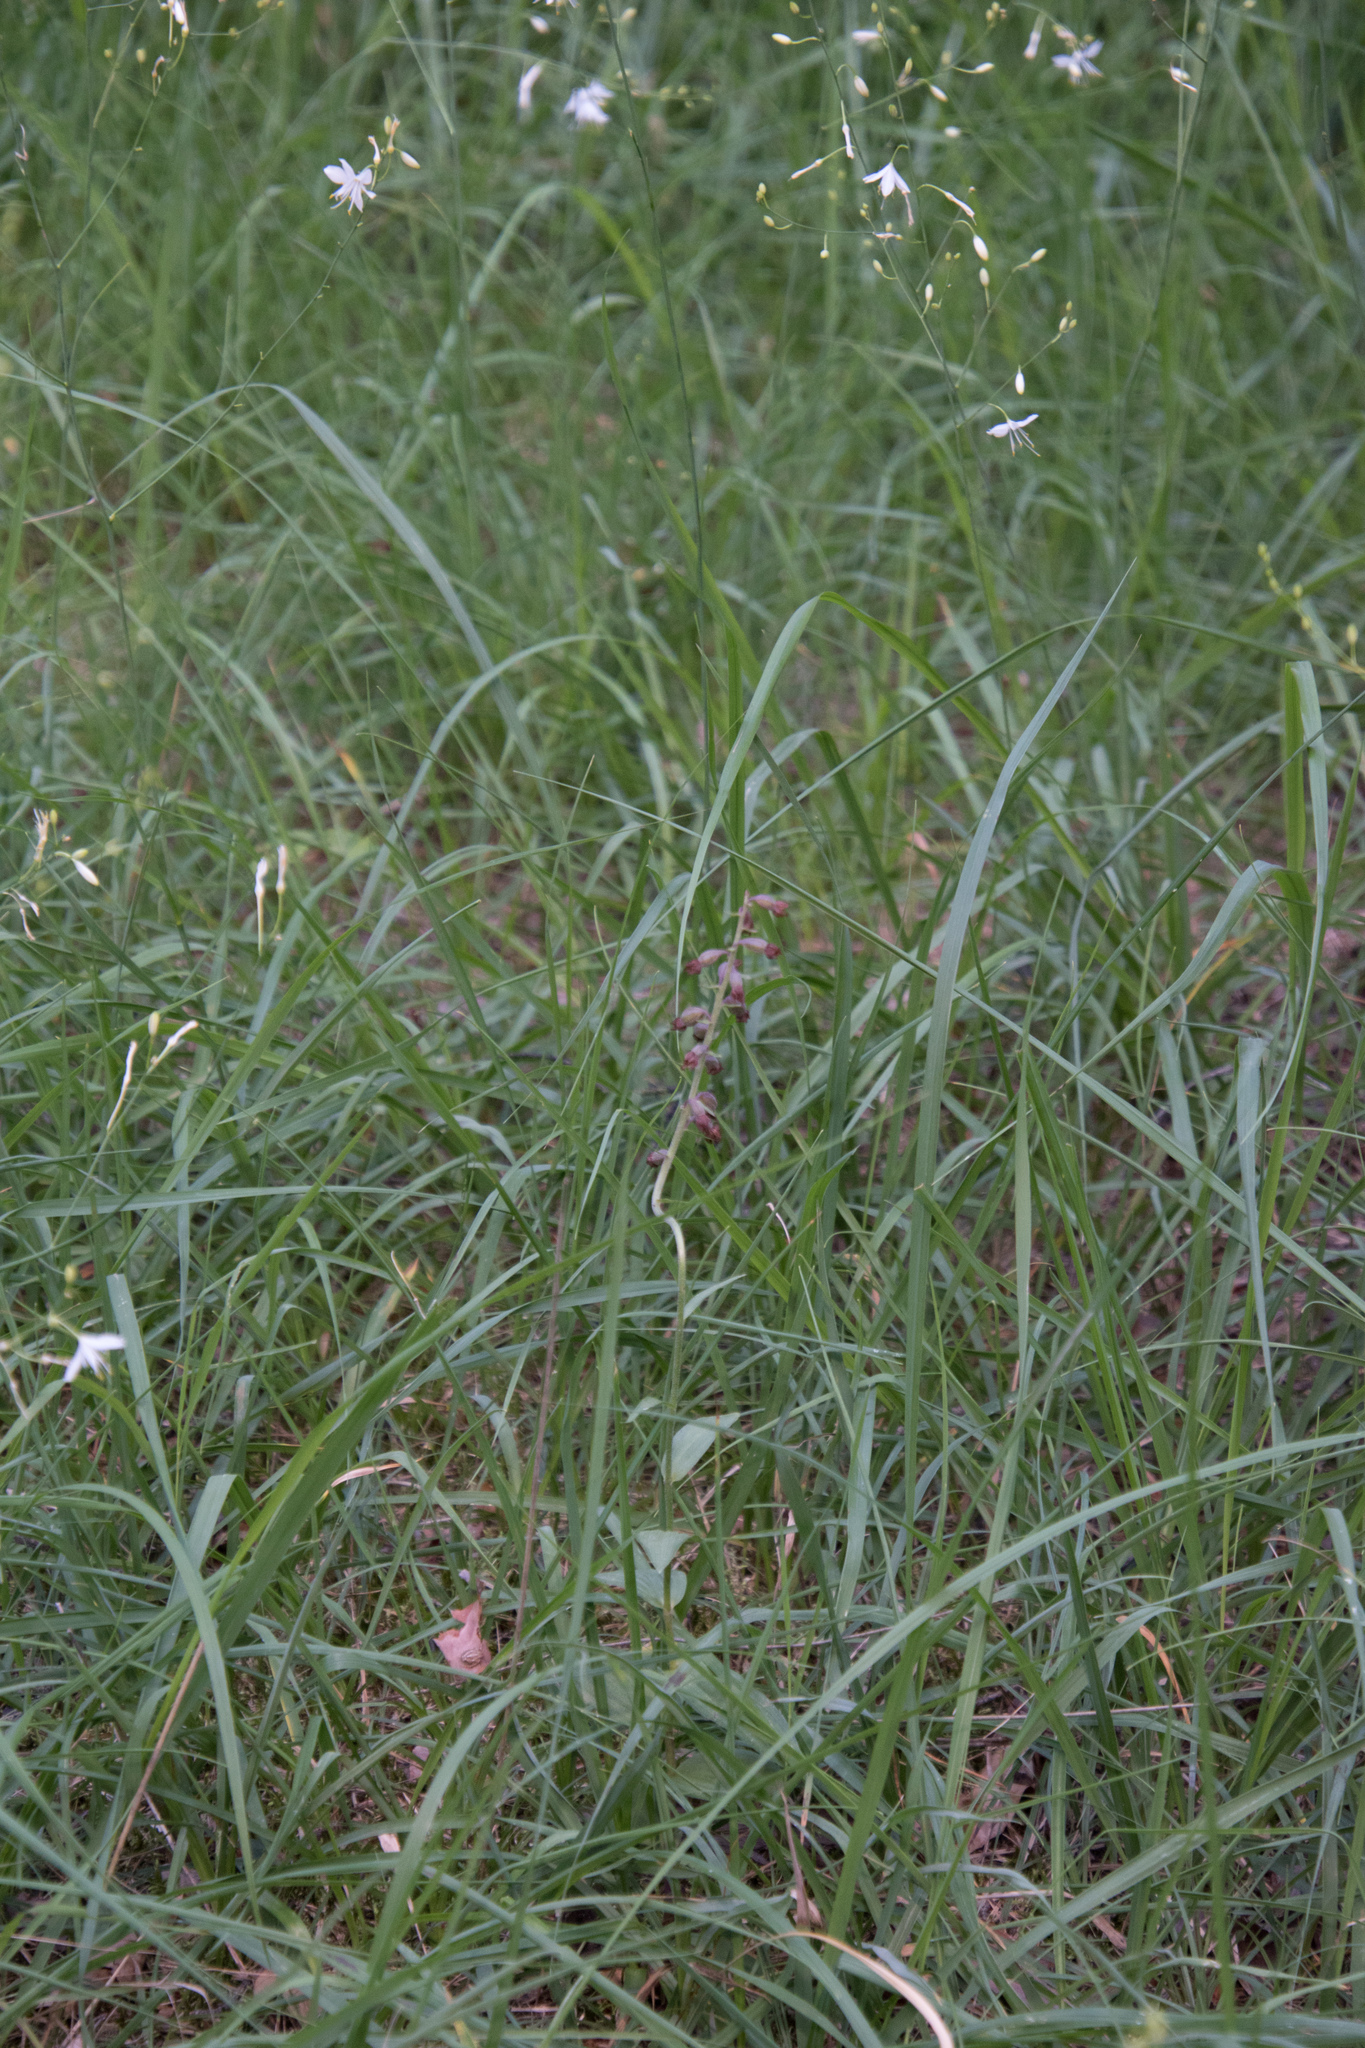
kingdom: Plantae
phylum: Tracheophyta
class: Liliopsida
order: Asparagales
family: Orchidaceae
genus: Epipactis
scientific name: Epipactis atrorubens
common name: Dark-red helleborine
